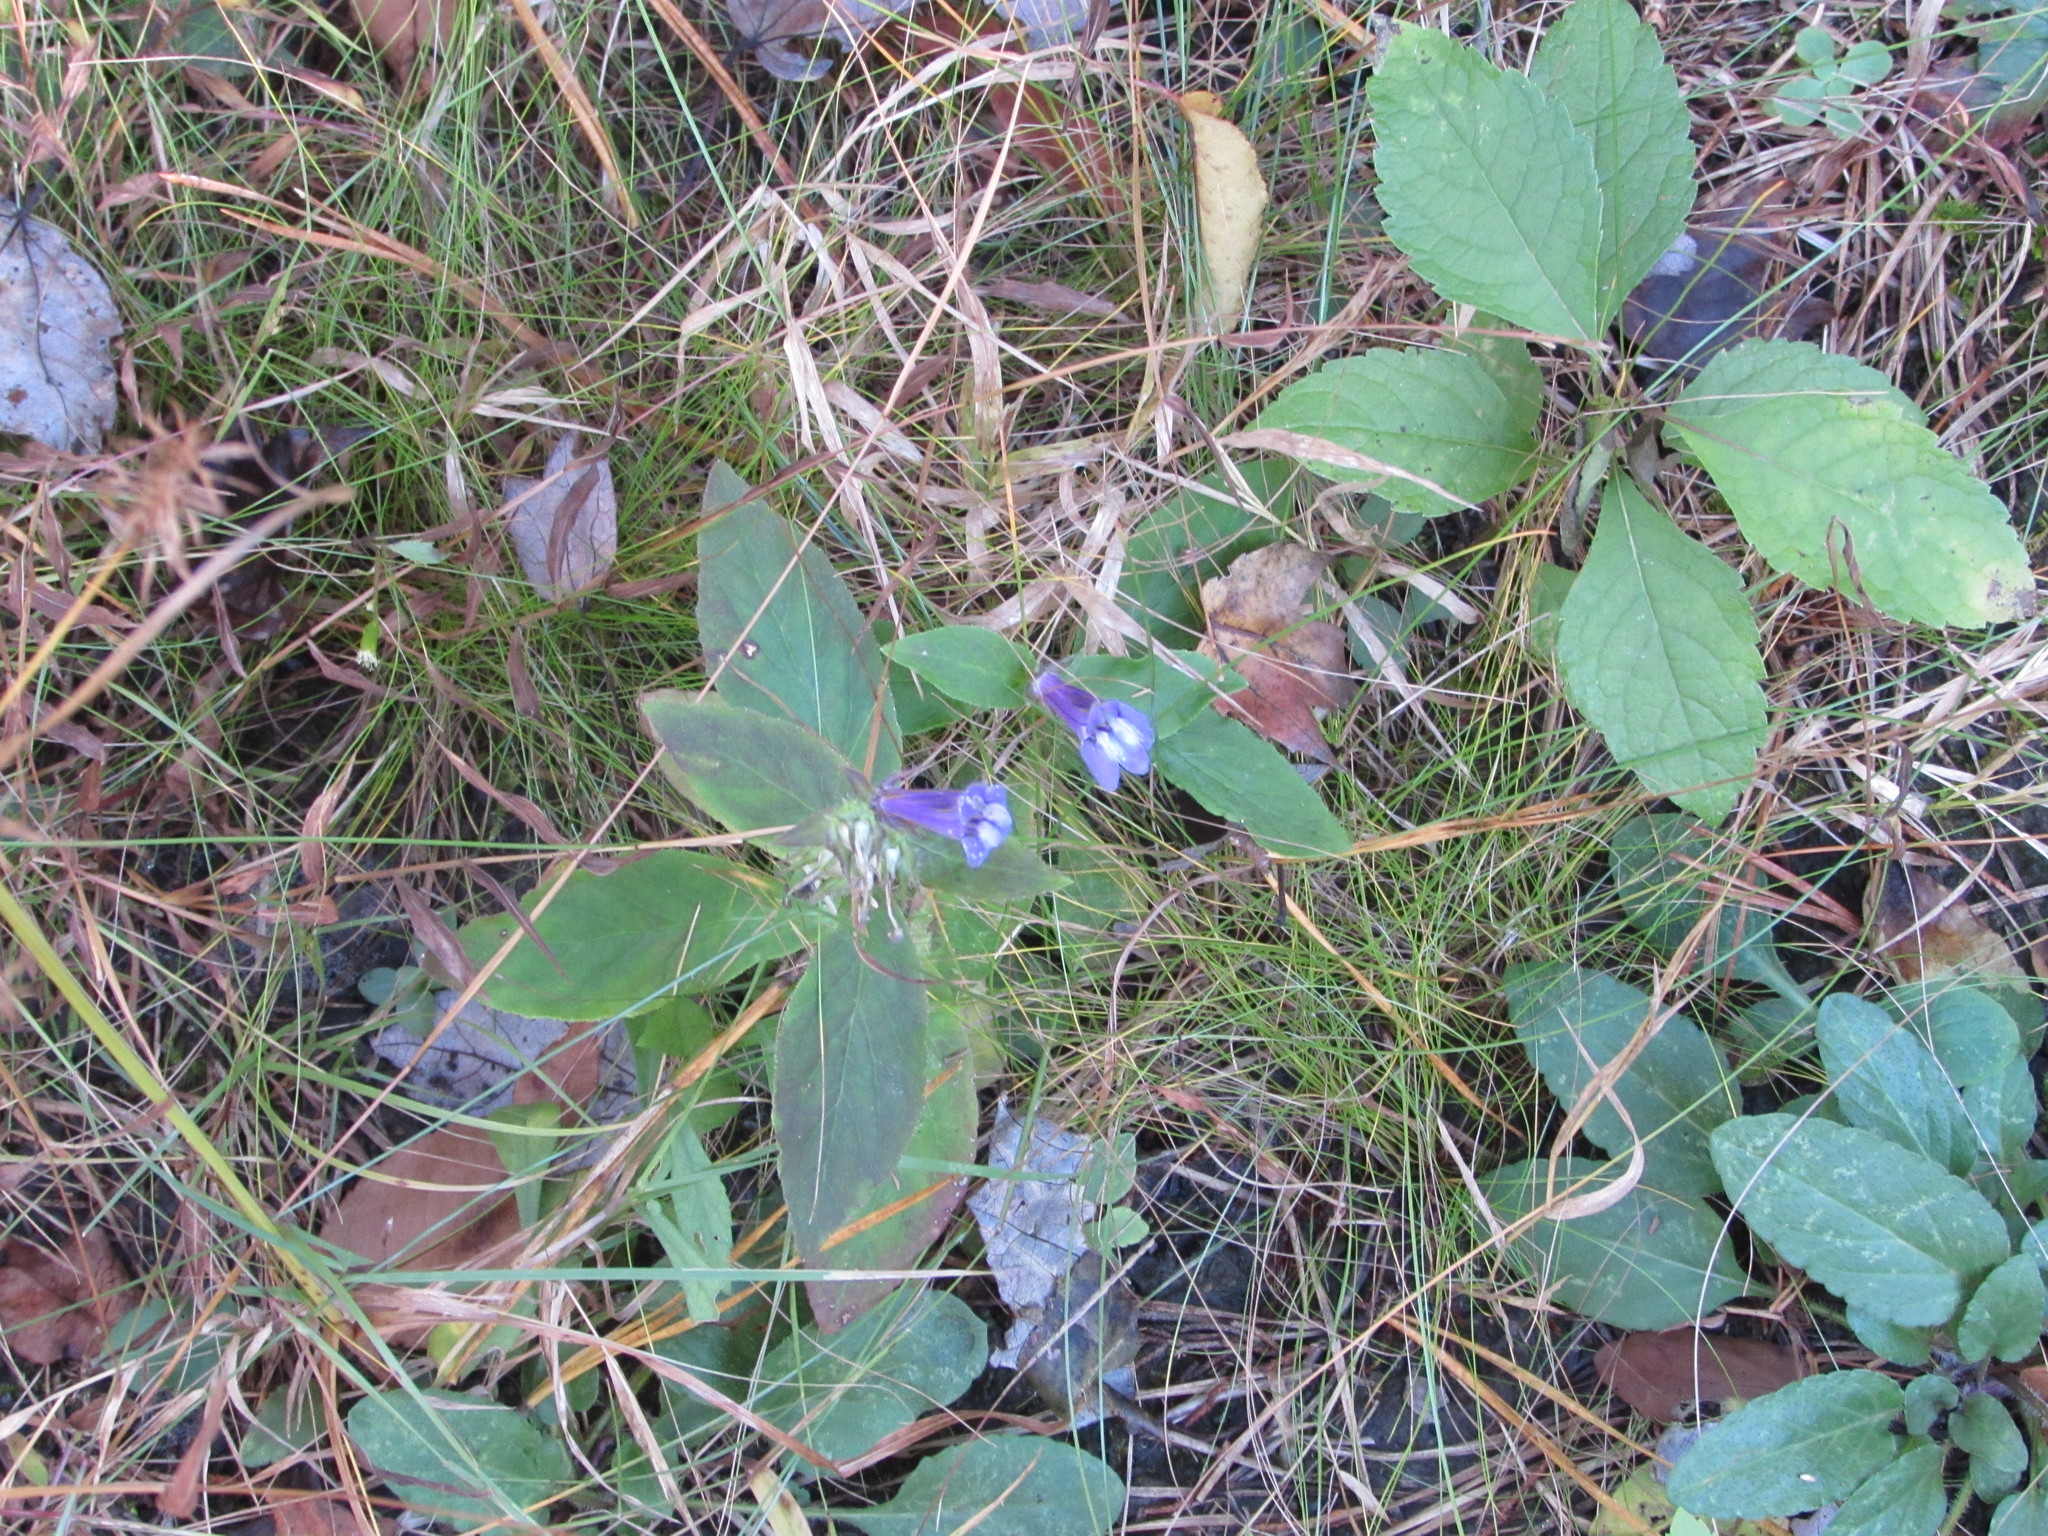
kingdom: Plantae
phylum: Tracheophyta
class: Magnoliopsida
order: Asterales
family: Campanulaceae
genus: Lobelia
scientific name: Lobelia siphilitica
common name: Great lobelia
